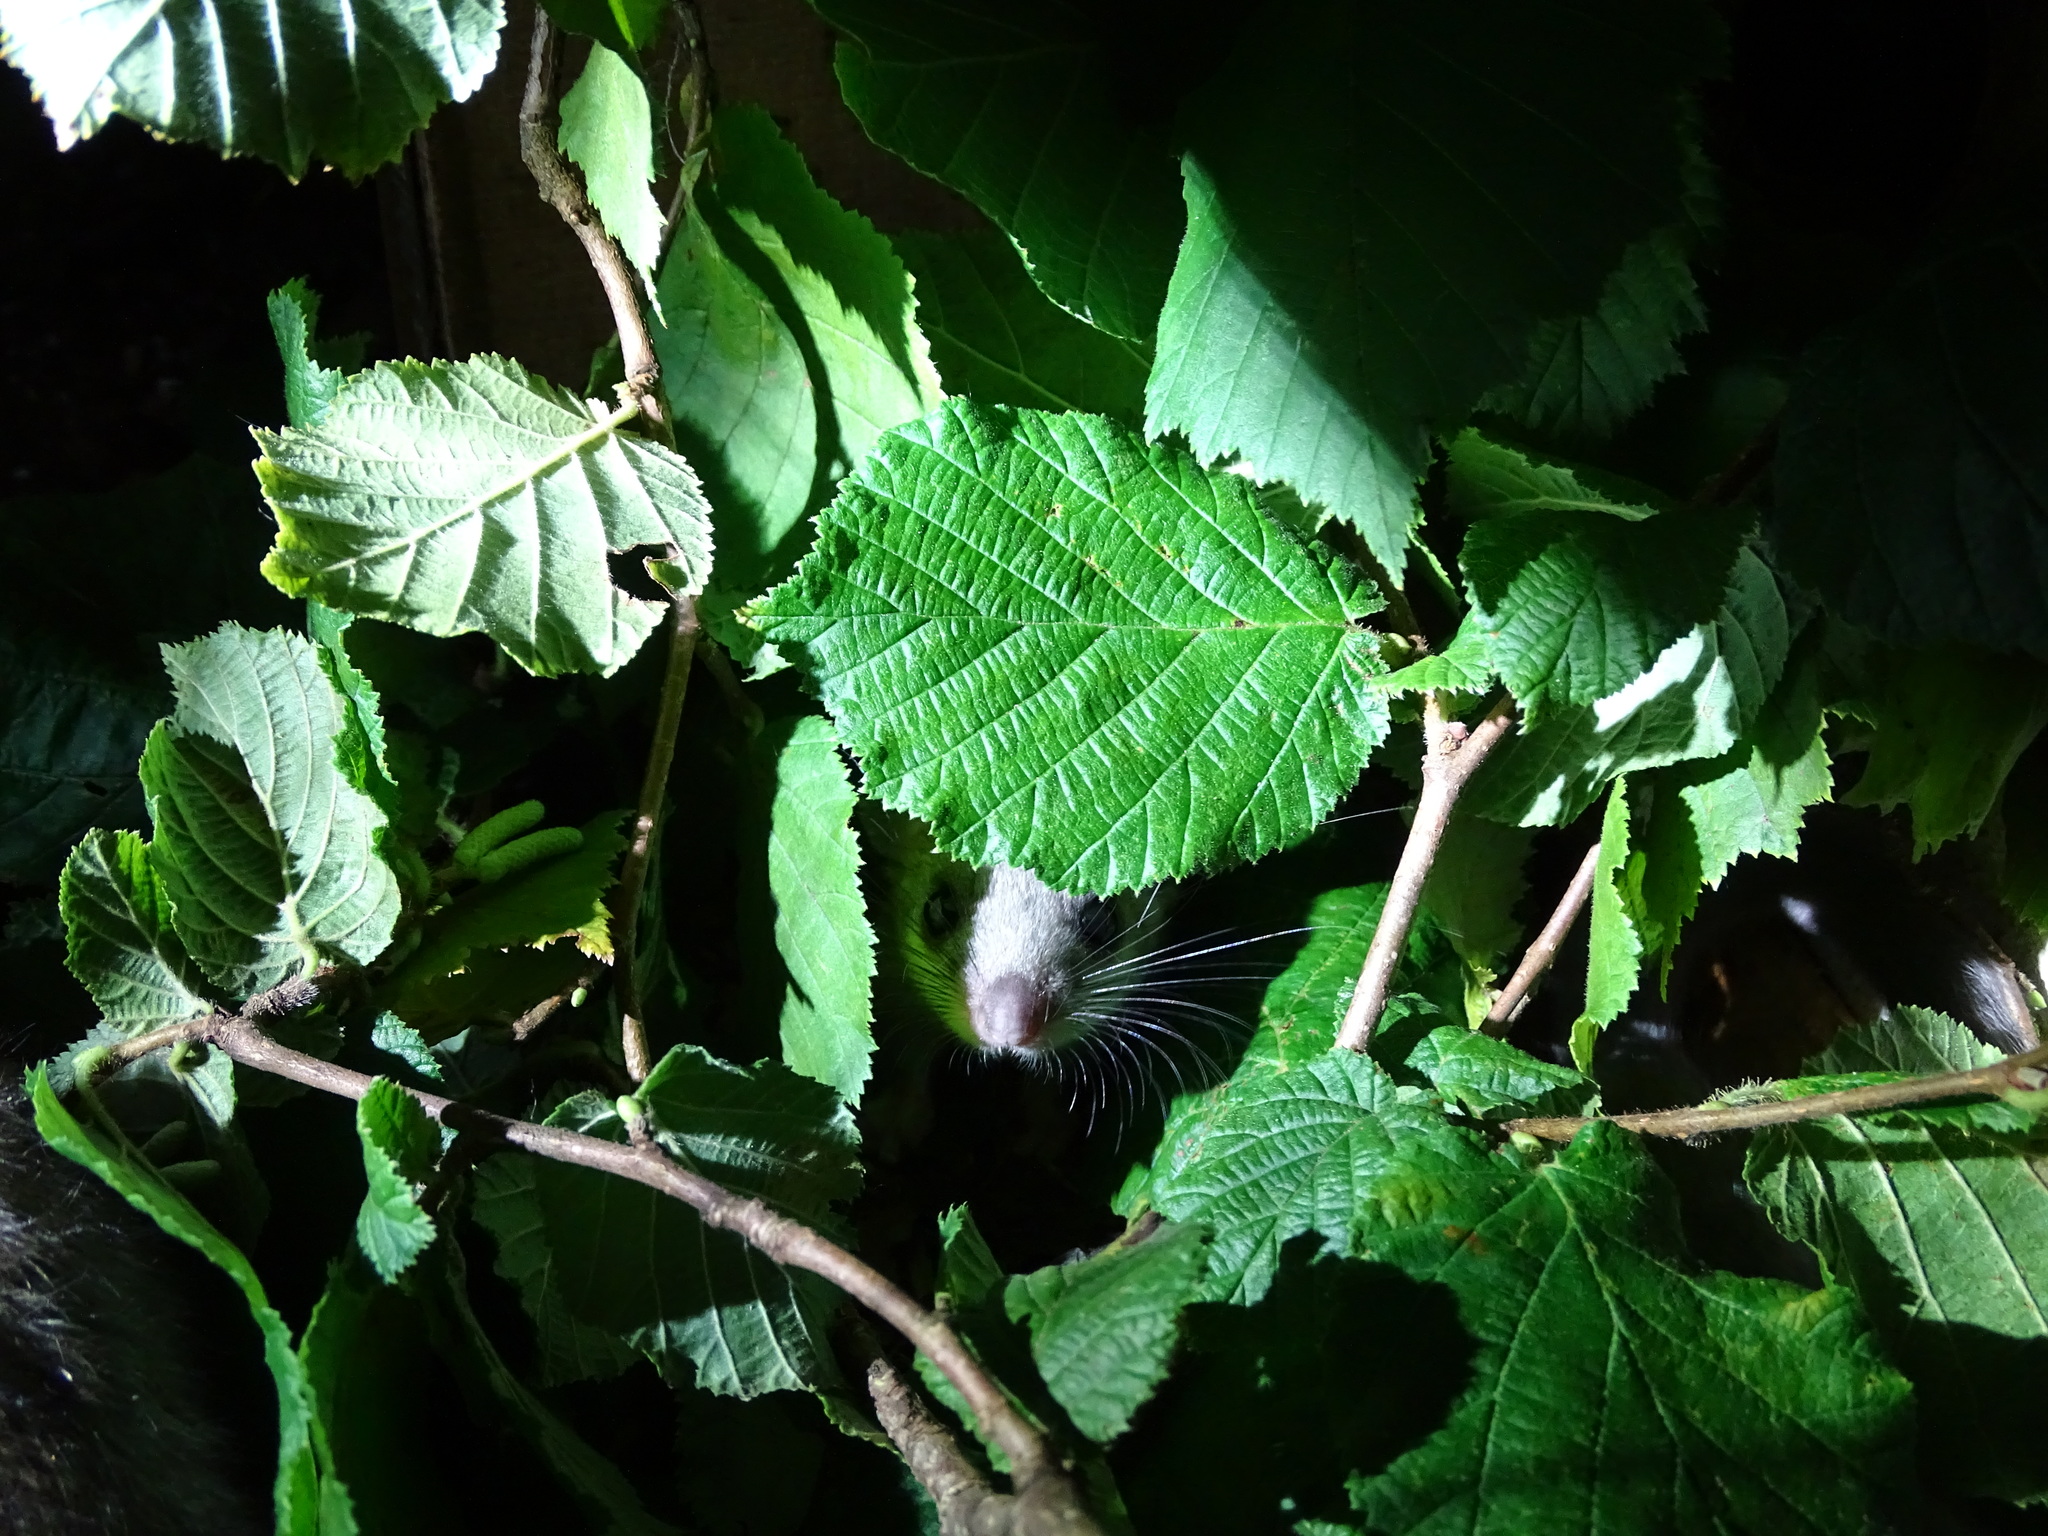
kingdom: Animalia
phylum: Chordata
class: Mammalia
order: Rodentia
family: Gliridae
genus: Glis
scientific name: Glis glis
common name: Fat dormouse
